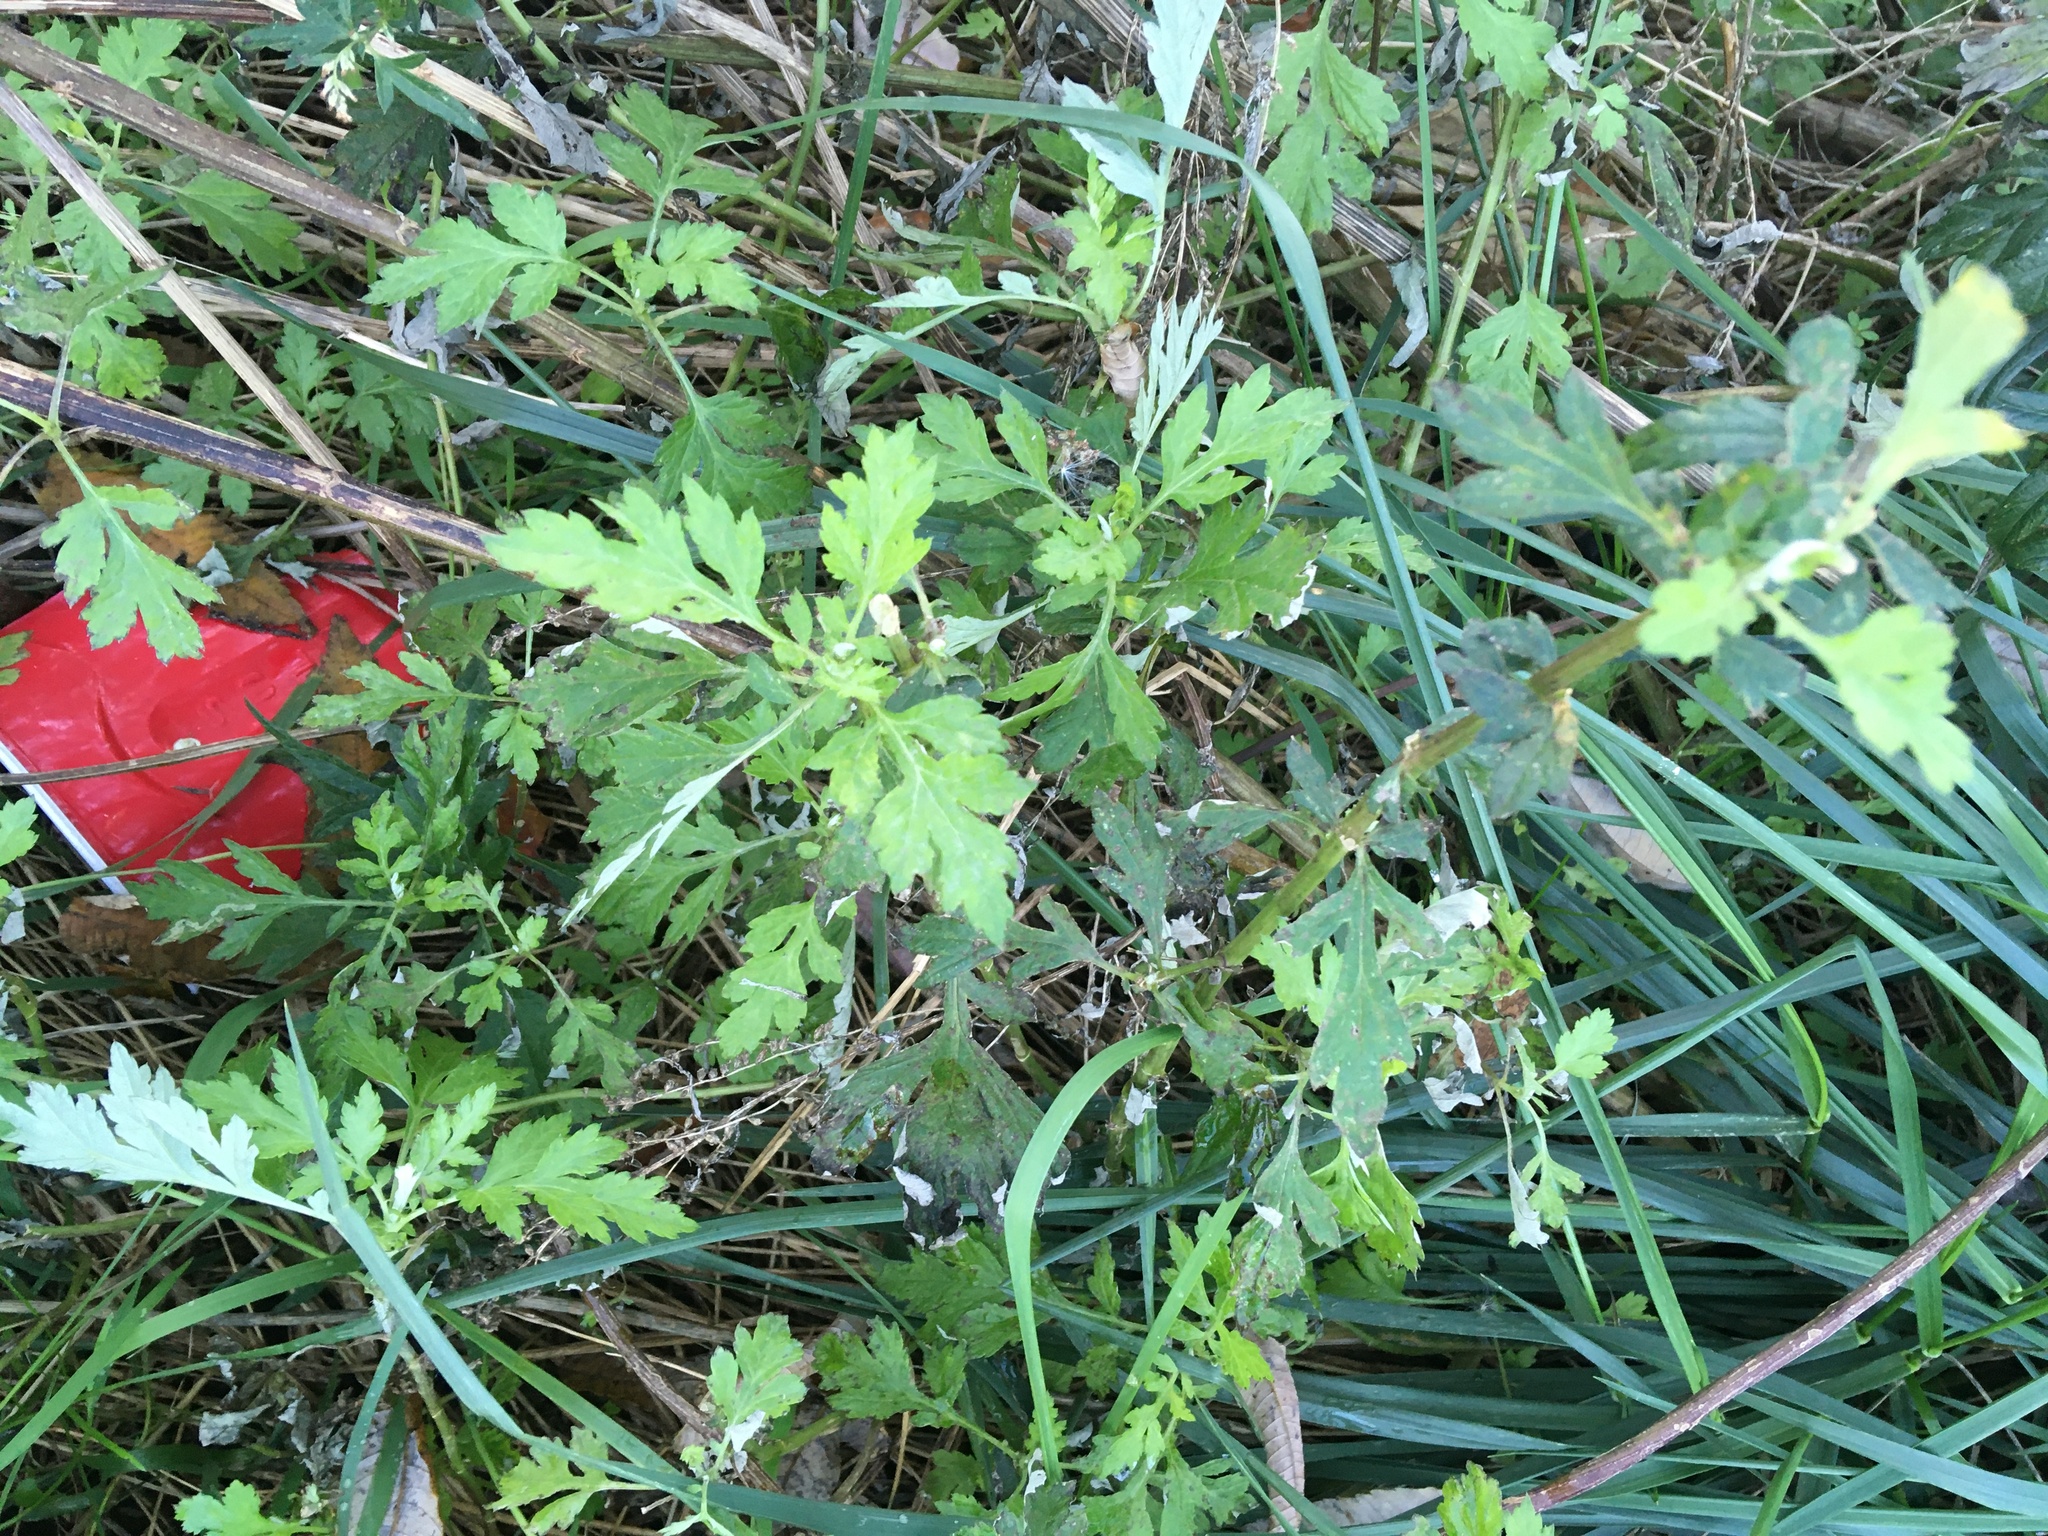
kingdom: Plantae
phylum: Tracheophyta
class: Magnoliopsida
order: Asterales
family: Asteraceae
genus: Artemisia
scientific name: Artemisia vulgaris
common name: Mugwort
